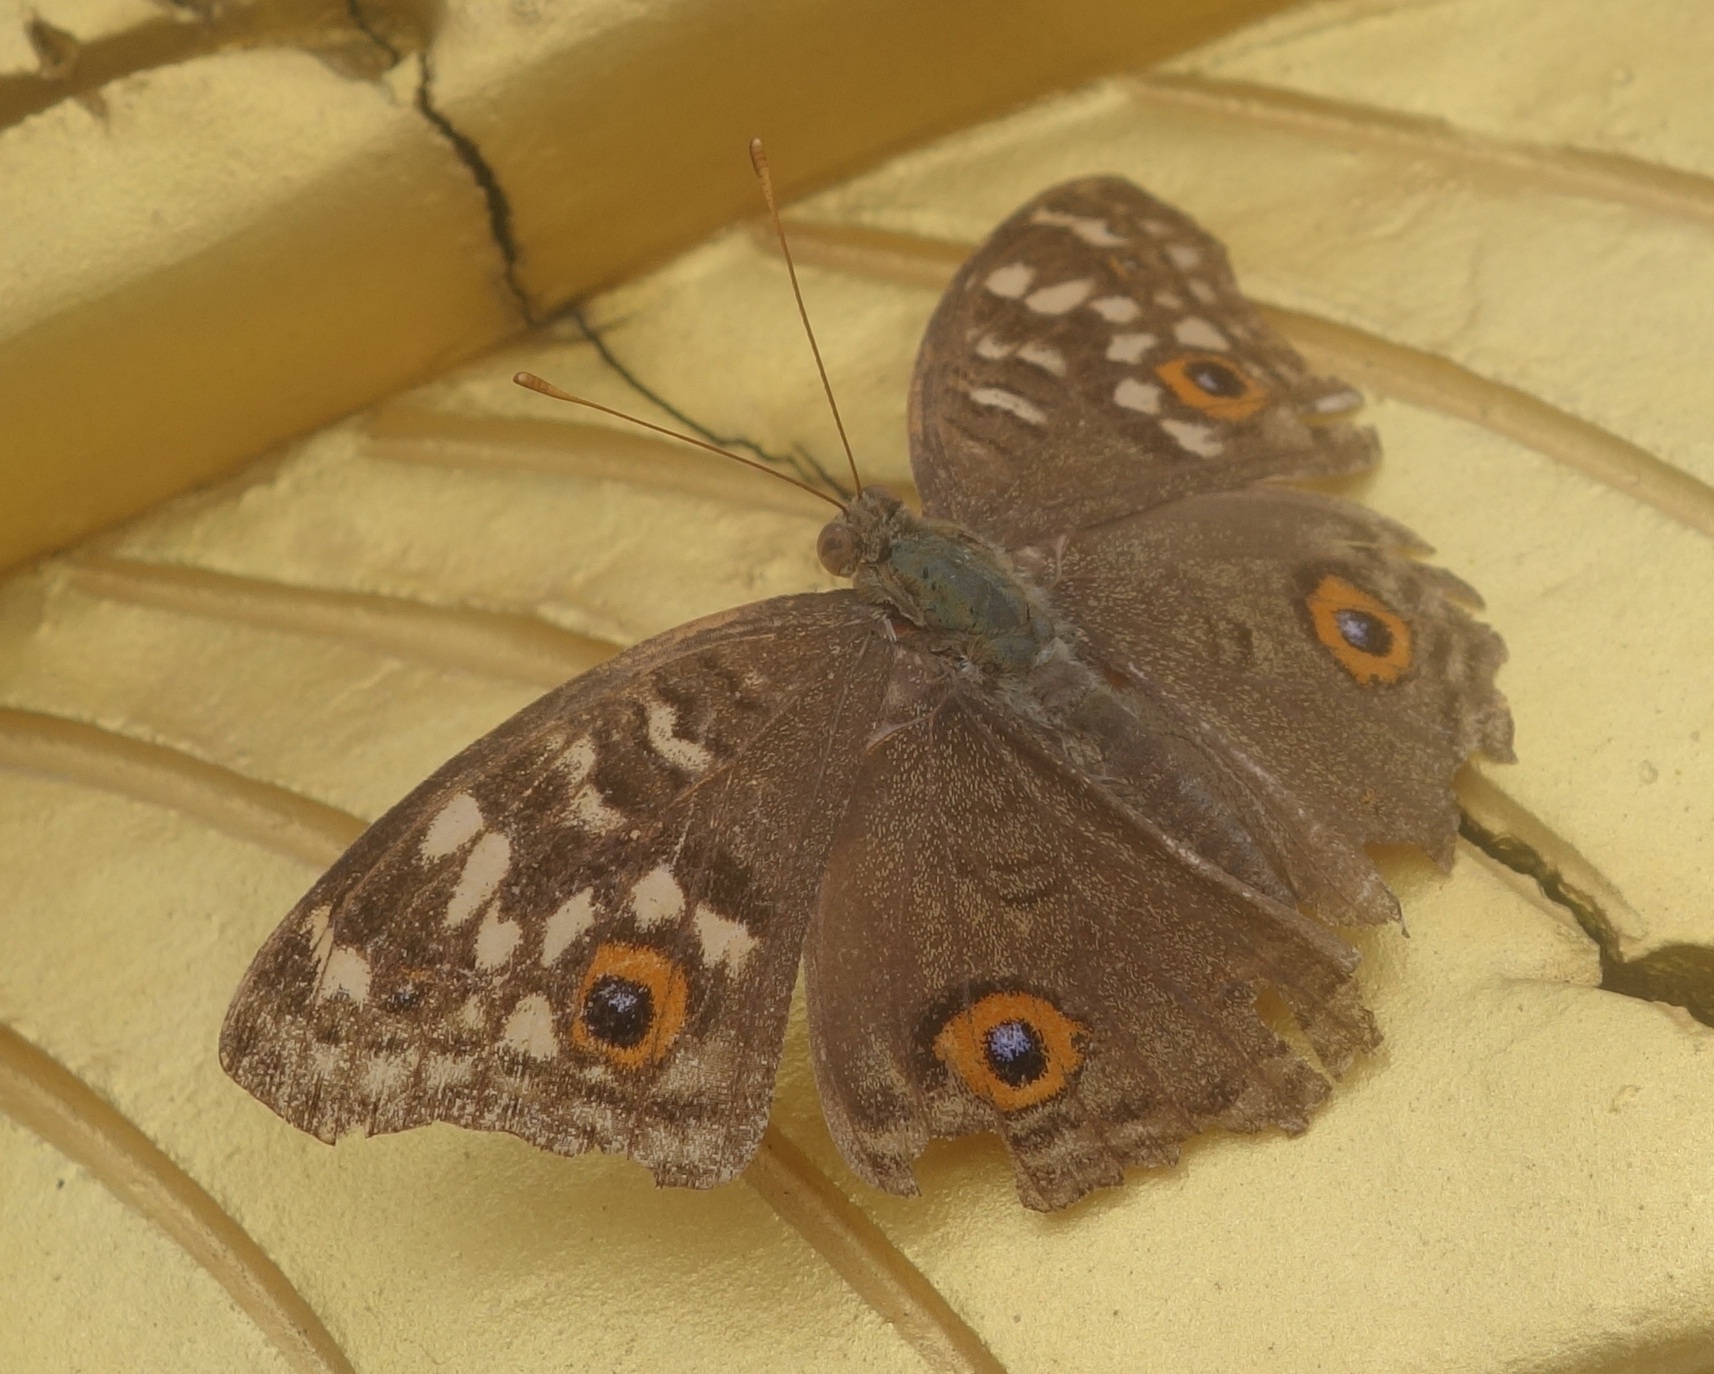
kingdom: Animalia
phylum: Arthropoda
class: Insecta
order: Lepidoptera
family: Nymphalidae
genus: Junonia
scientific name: Junonia lemonias
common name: Lemon pansy
